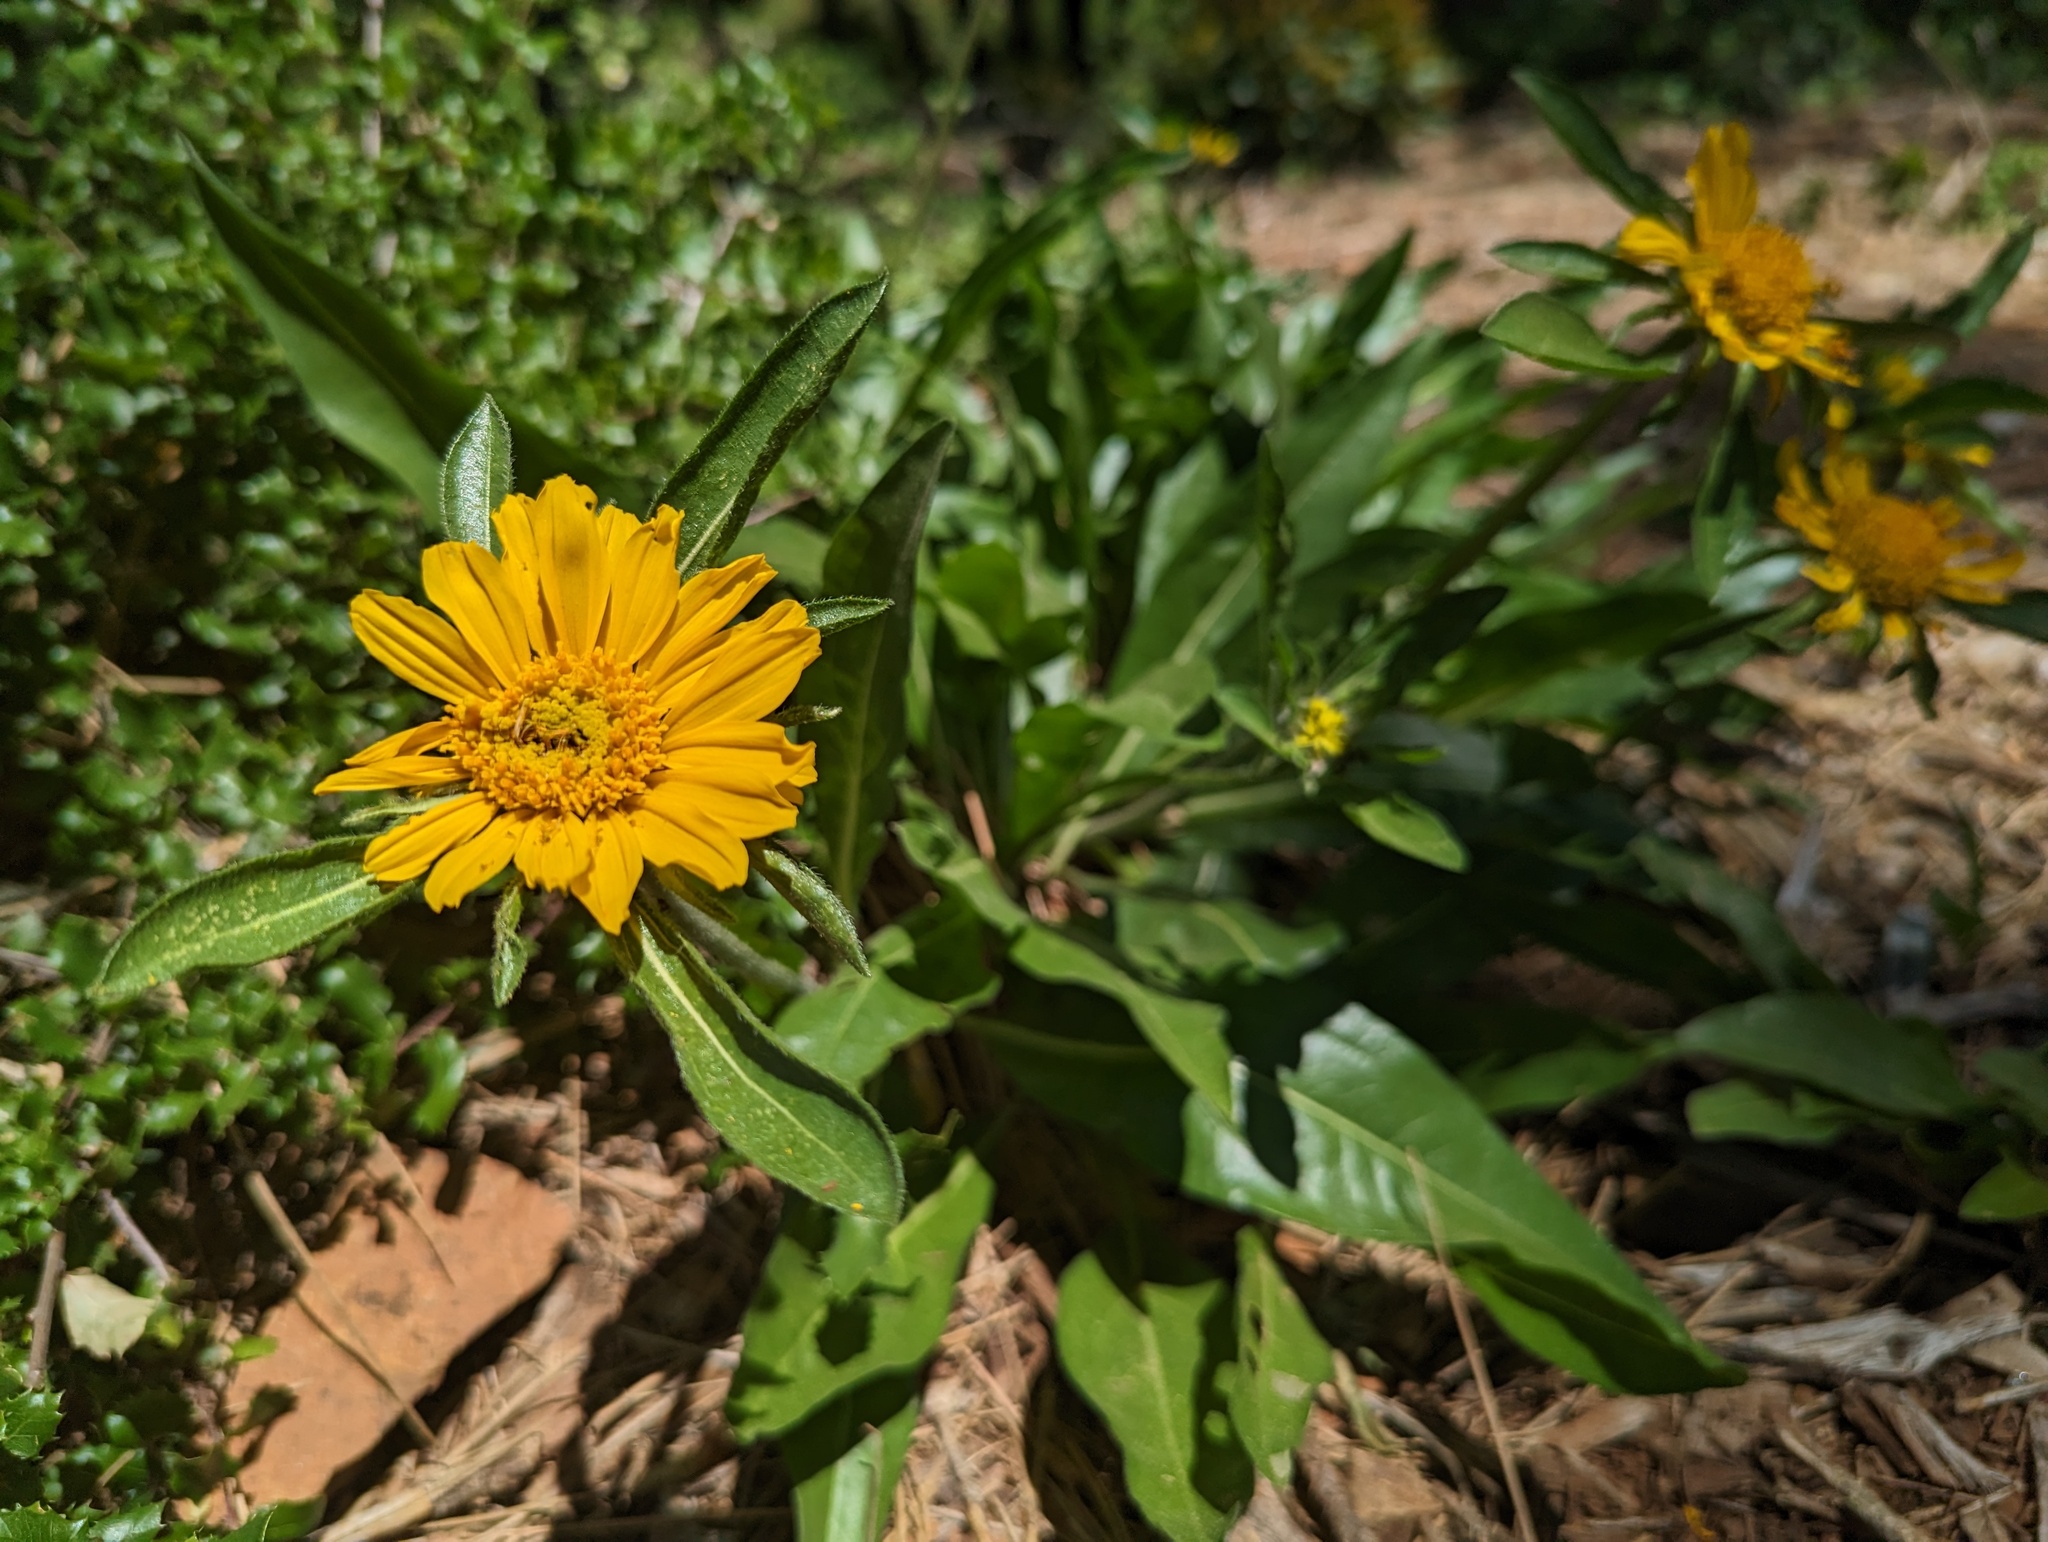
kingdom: Plantae
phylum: Tracheophyta
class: Magnoliopsida
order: Asterales
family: Asteraceae
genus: Helianthella
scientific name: Helianthella castanea
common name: Diablo helianthella
